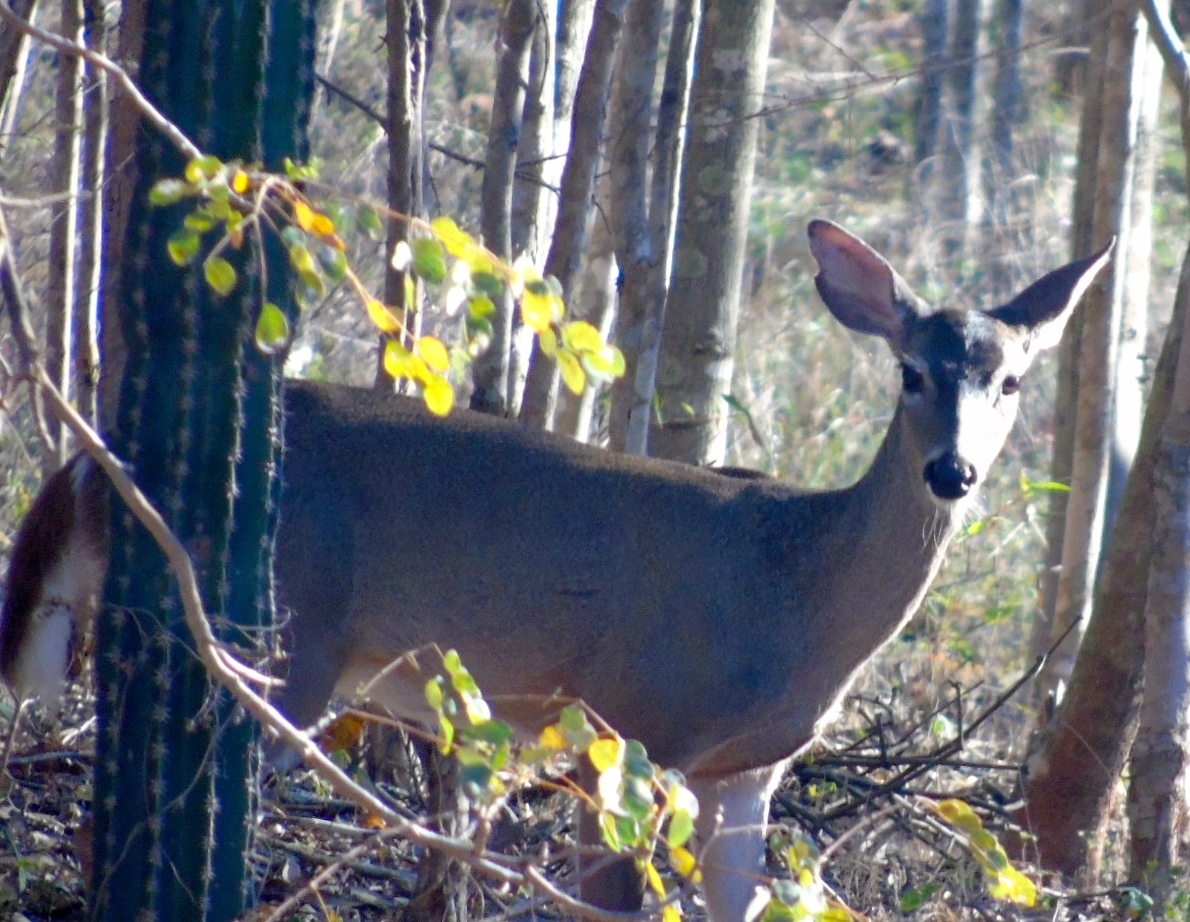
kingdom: Animalia
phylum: Chordata
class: Mammalia
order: Artiodactyla
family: Cervidae
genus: Odocoileus
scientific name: Odocoileus virginianus
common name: White-tailed deer
